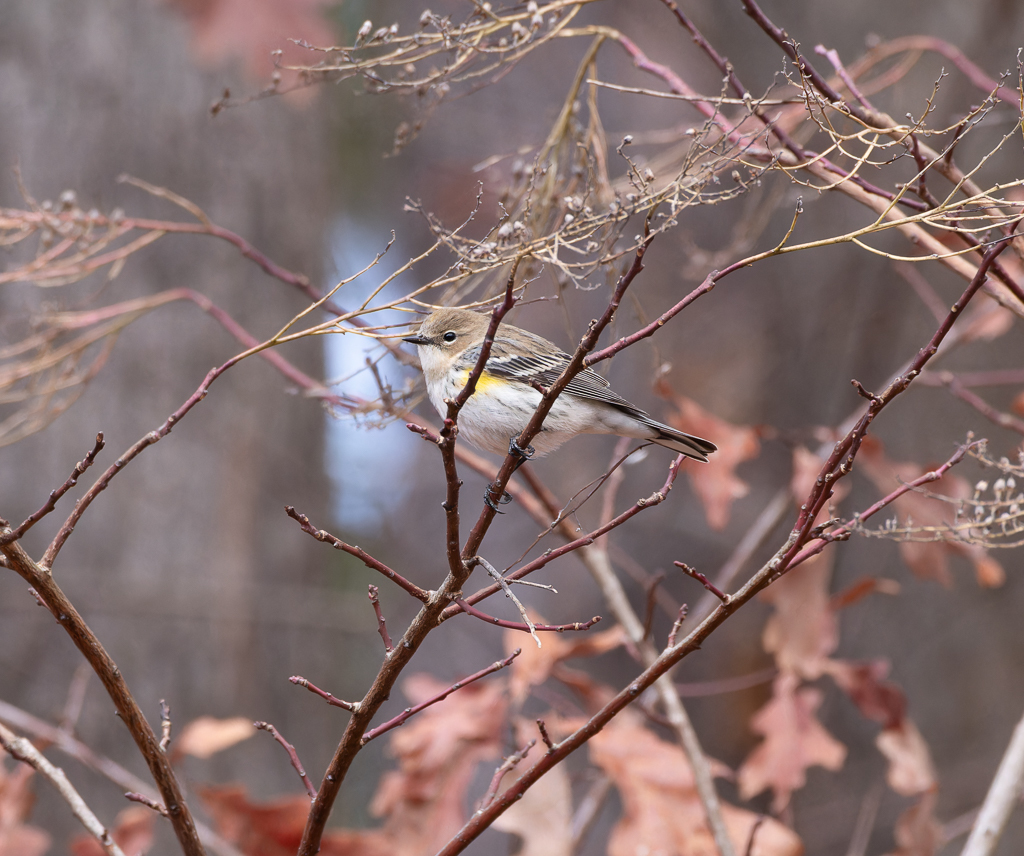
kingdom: Animalia
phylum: Chordata
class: Aves
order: Passeriformes
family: Parulidae
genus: Setophaga
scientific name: Setophaga coronata
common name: Myrtle warbler
